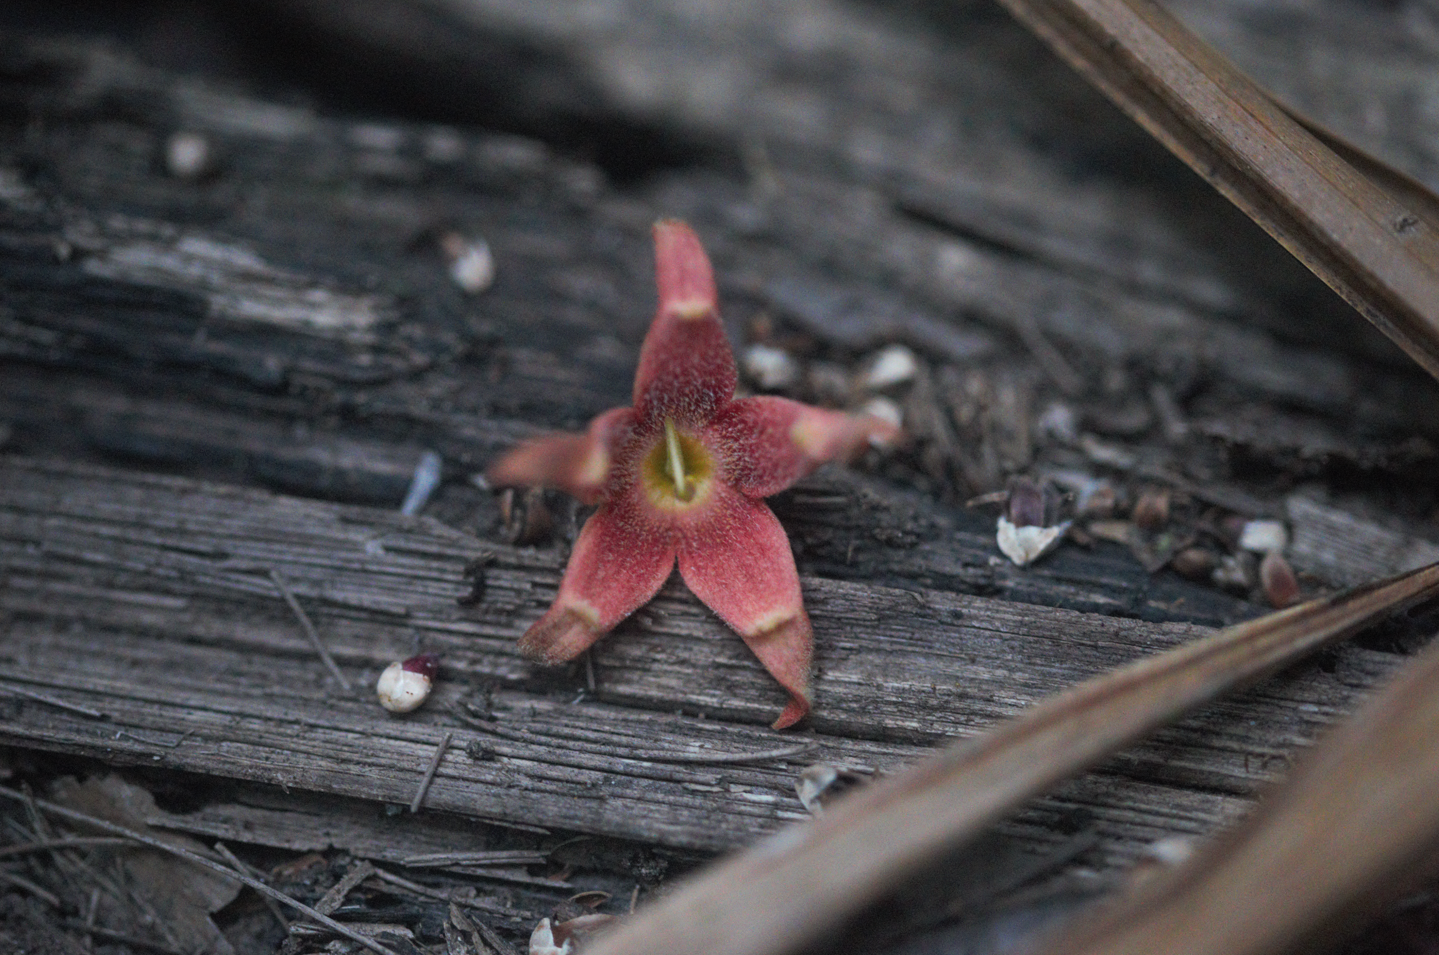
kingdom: Plantae
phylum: Tracheophyta
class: Magnoliopsida
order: Malvales
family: Malvaceae
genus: Sterculia
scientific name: Sterculia
